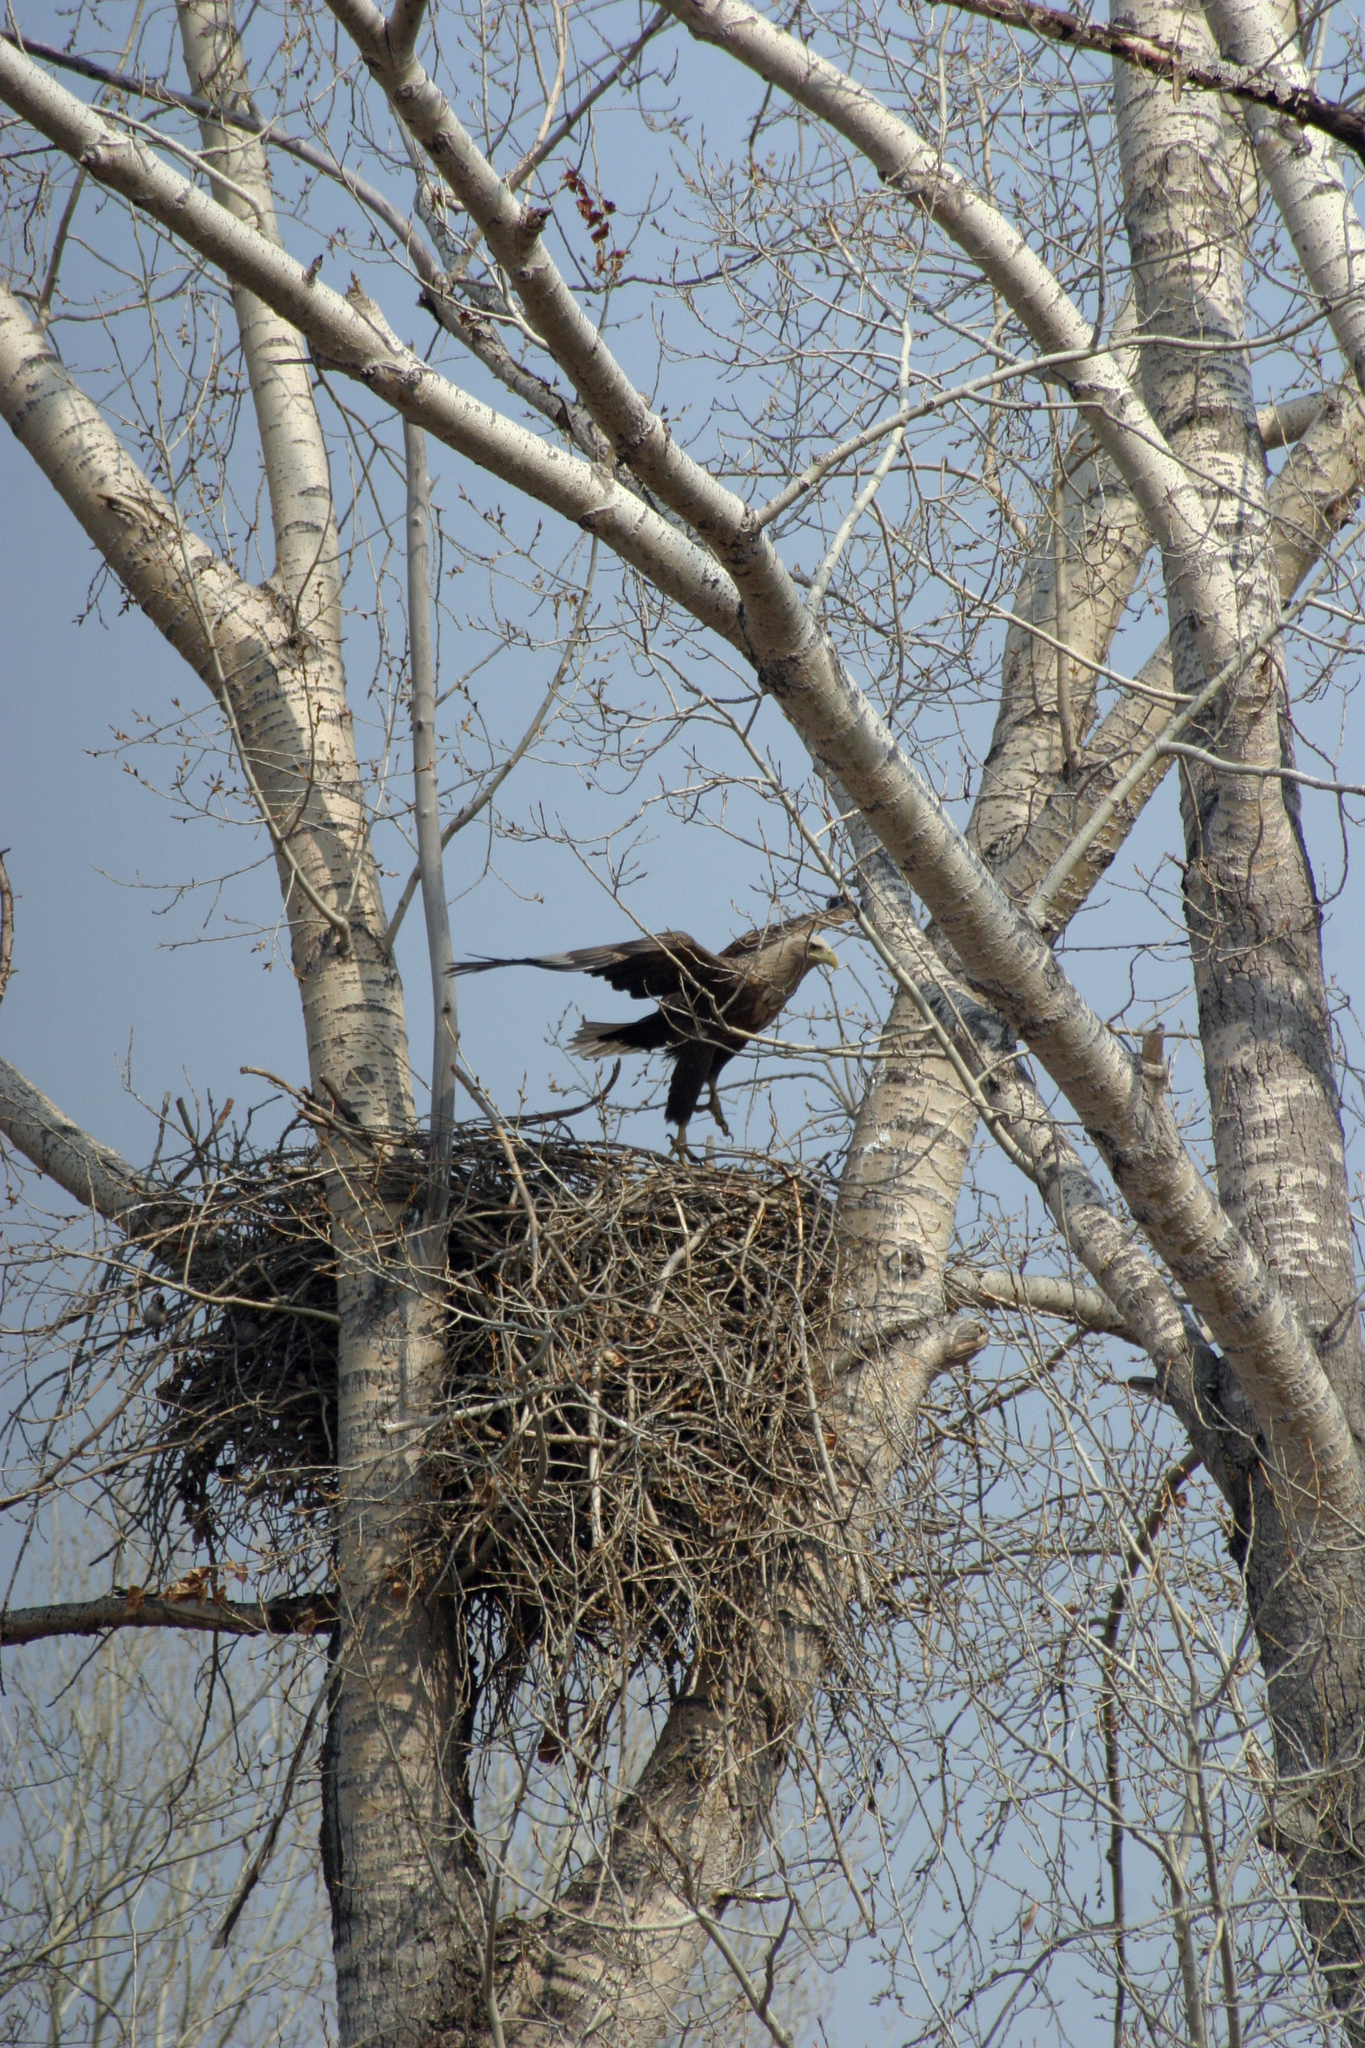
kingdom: Animalia
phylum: Chordata
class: Aves
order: Accipitriformes
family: Accipitridae
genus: Haliaeetus
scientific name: Haliaeetus albicilla
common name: White-tailed eagle
